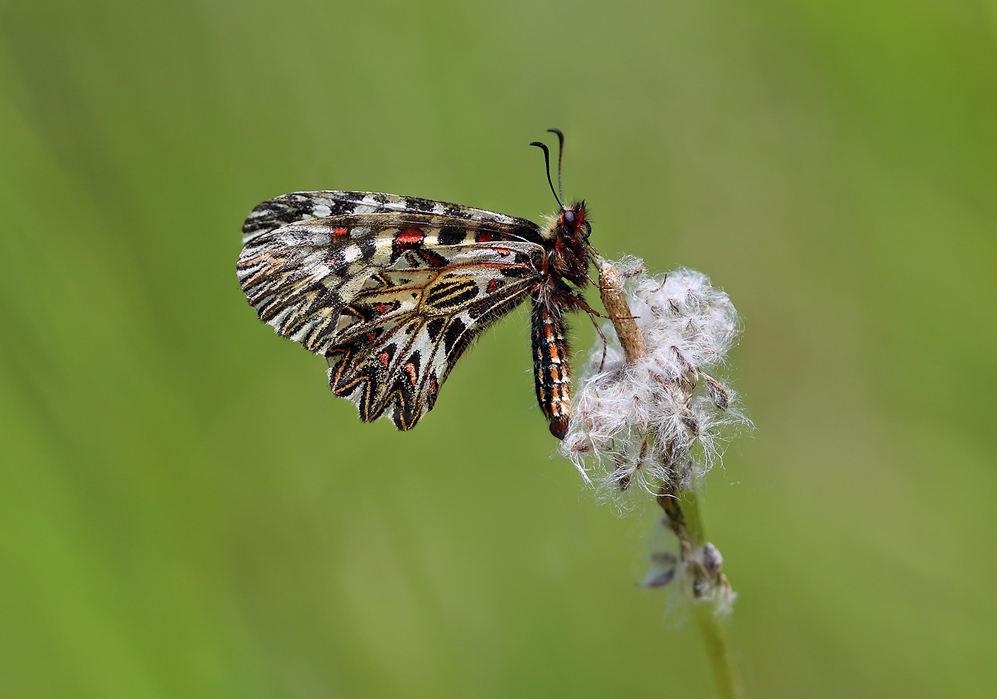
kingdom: Animalia
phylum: Arthropoda
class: Insecta
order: Lepidoptera
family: Papilionidae
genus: Zerynthia
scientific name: Zerynthia cassandra
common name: Italian festoon
